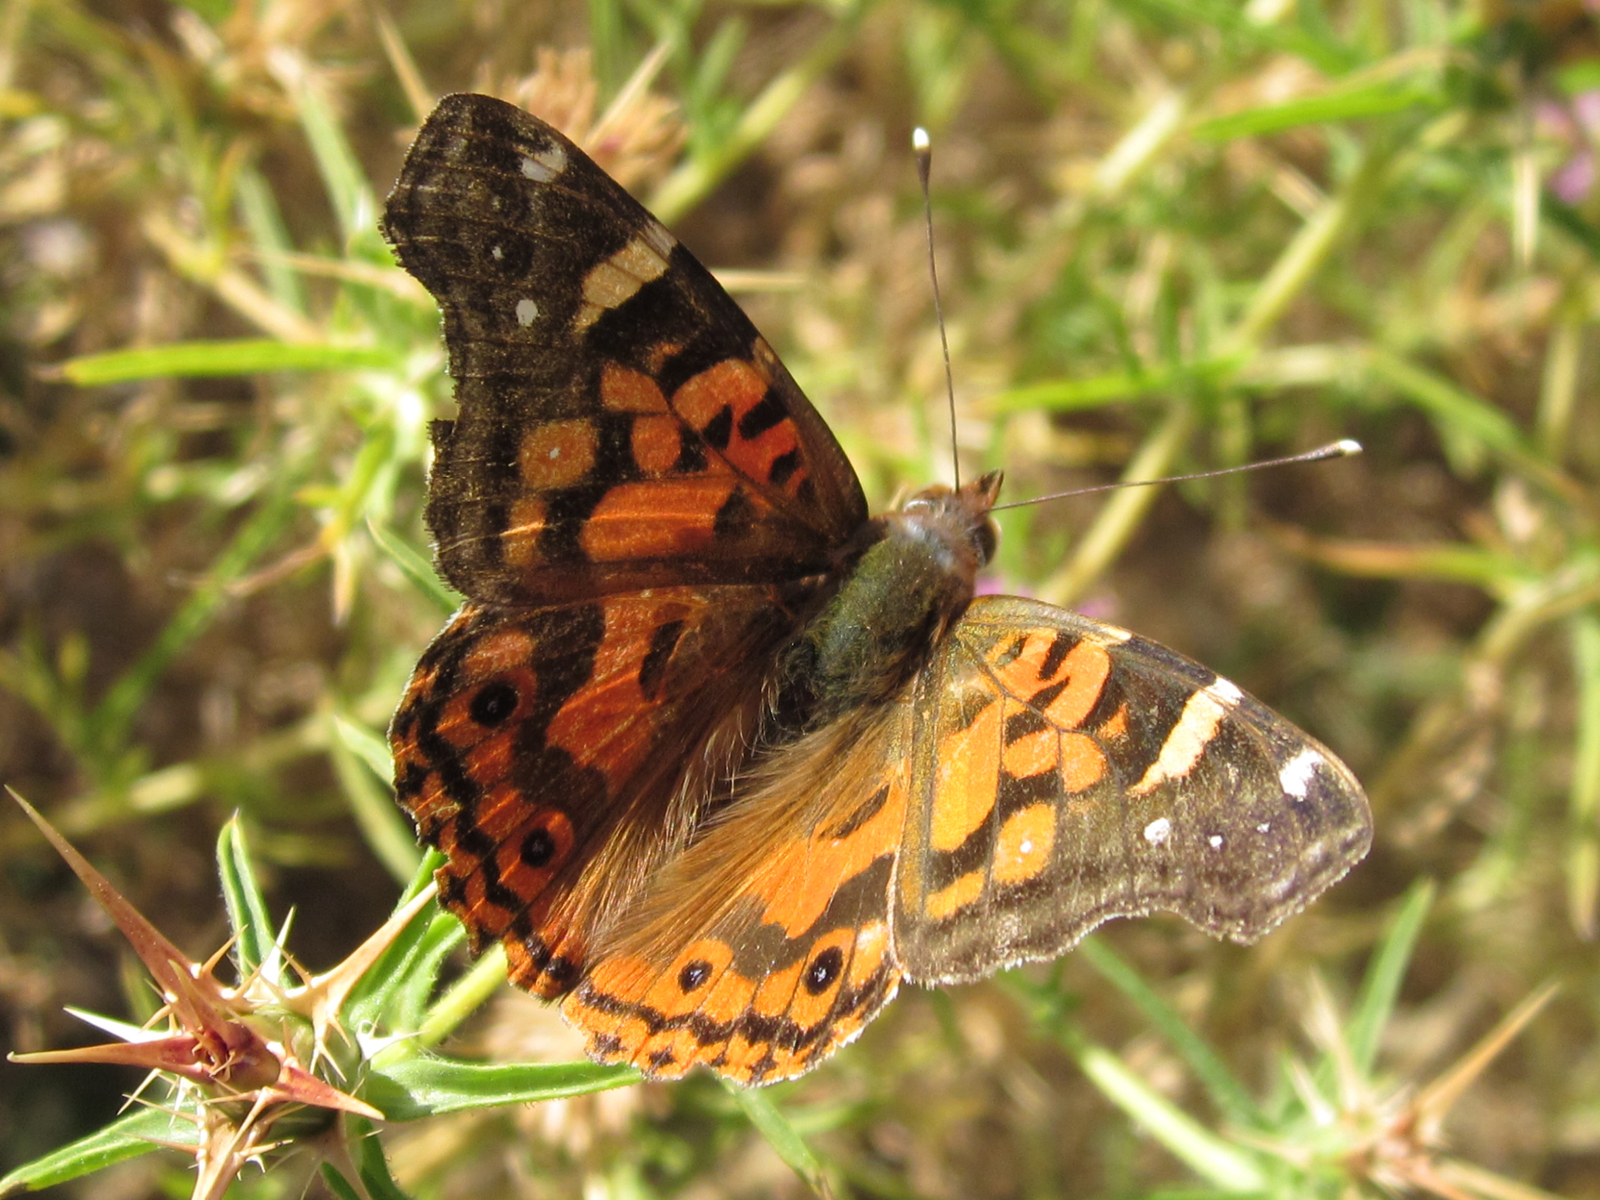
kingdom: Animalia
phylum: Arthropoda
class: Insecta
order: Lepidoptera
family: Nymphalidae
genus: Vanessa
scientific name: Vanessa terpsichore
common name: Chilean lady
